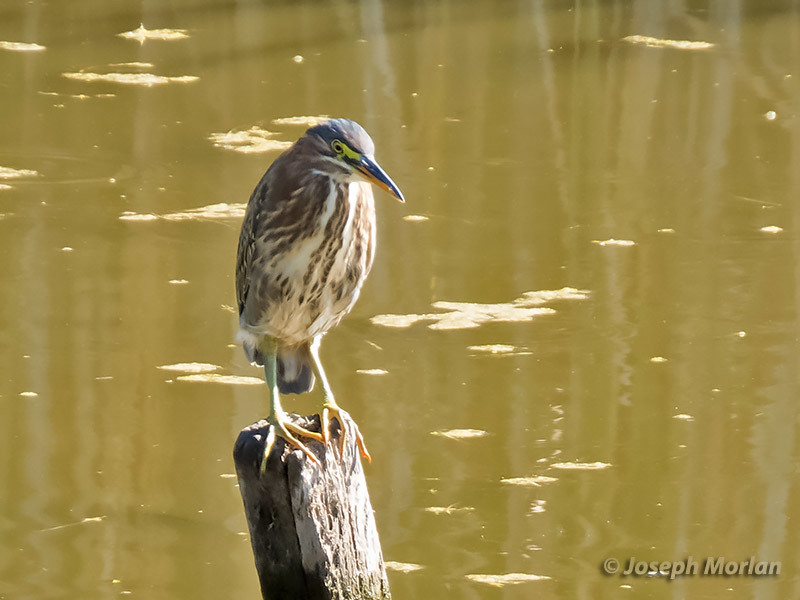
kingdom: Animalia
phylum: Chordata
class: Aves
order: Pelecaniformes
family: Ardeidae
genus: Butorides
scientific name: Butorides virescens
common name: Green heron
